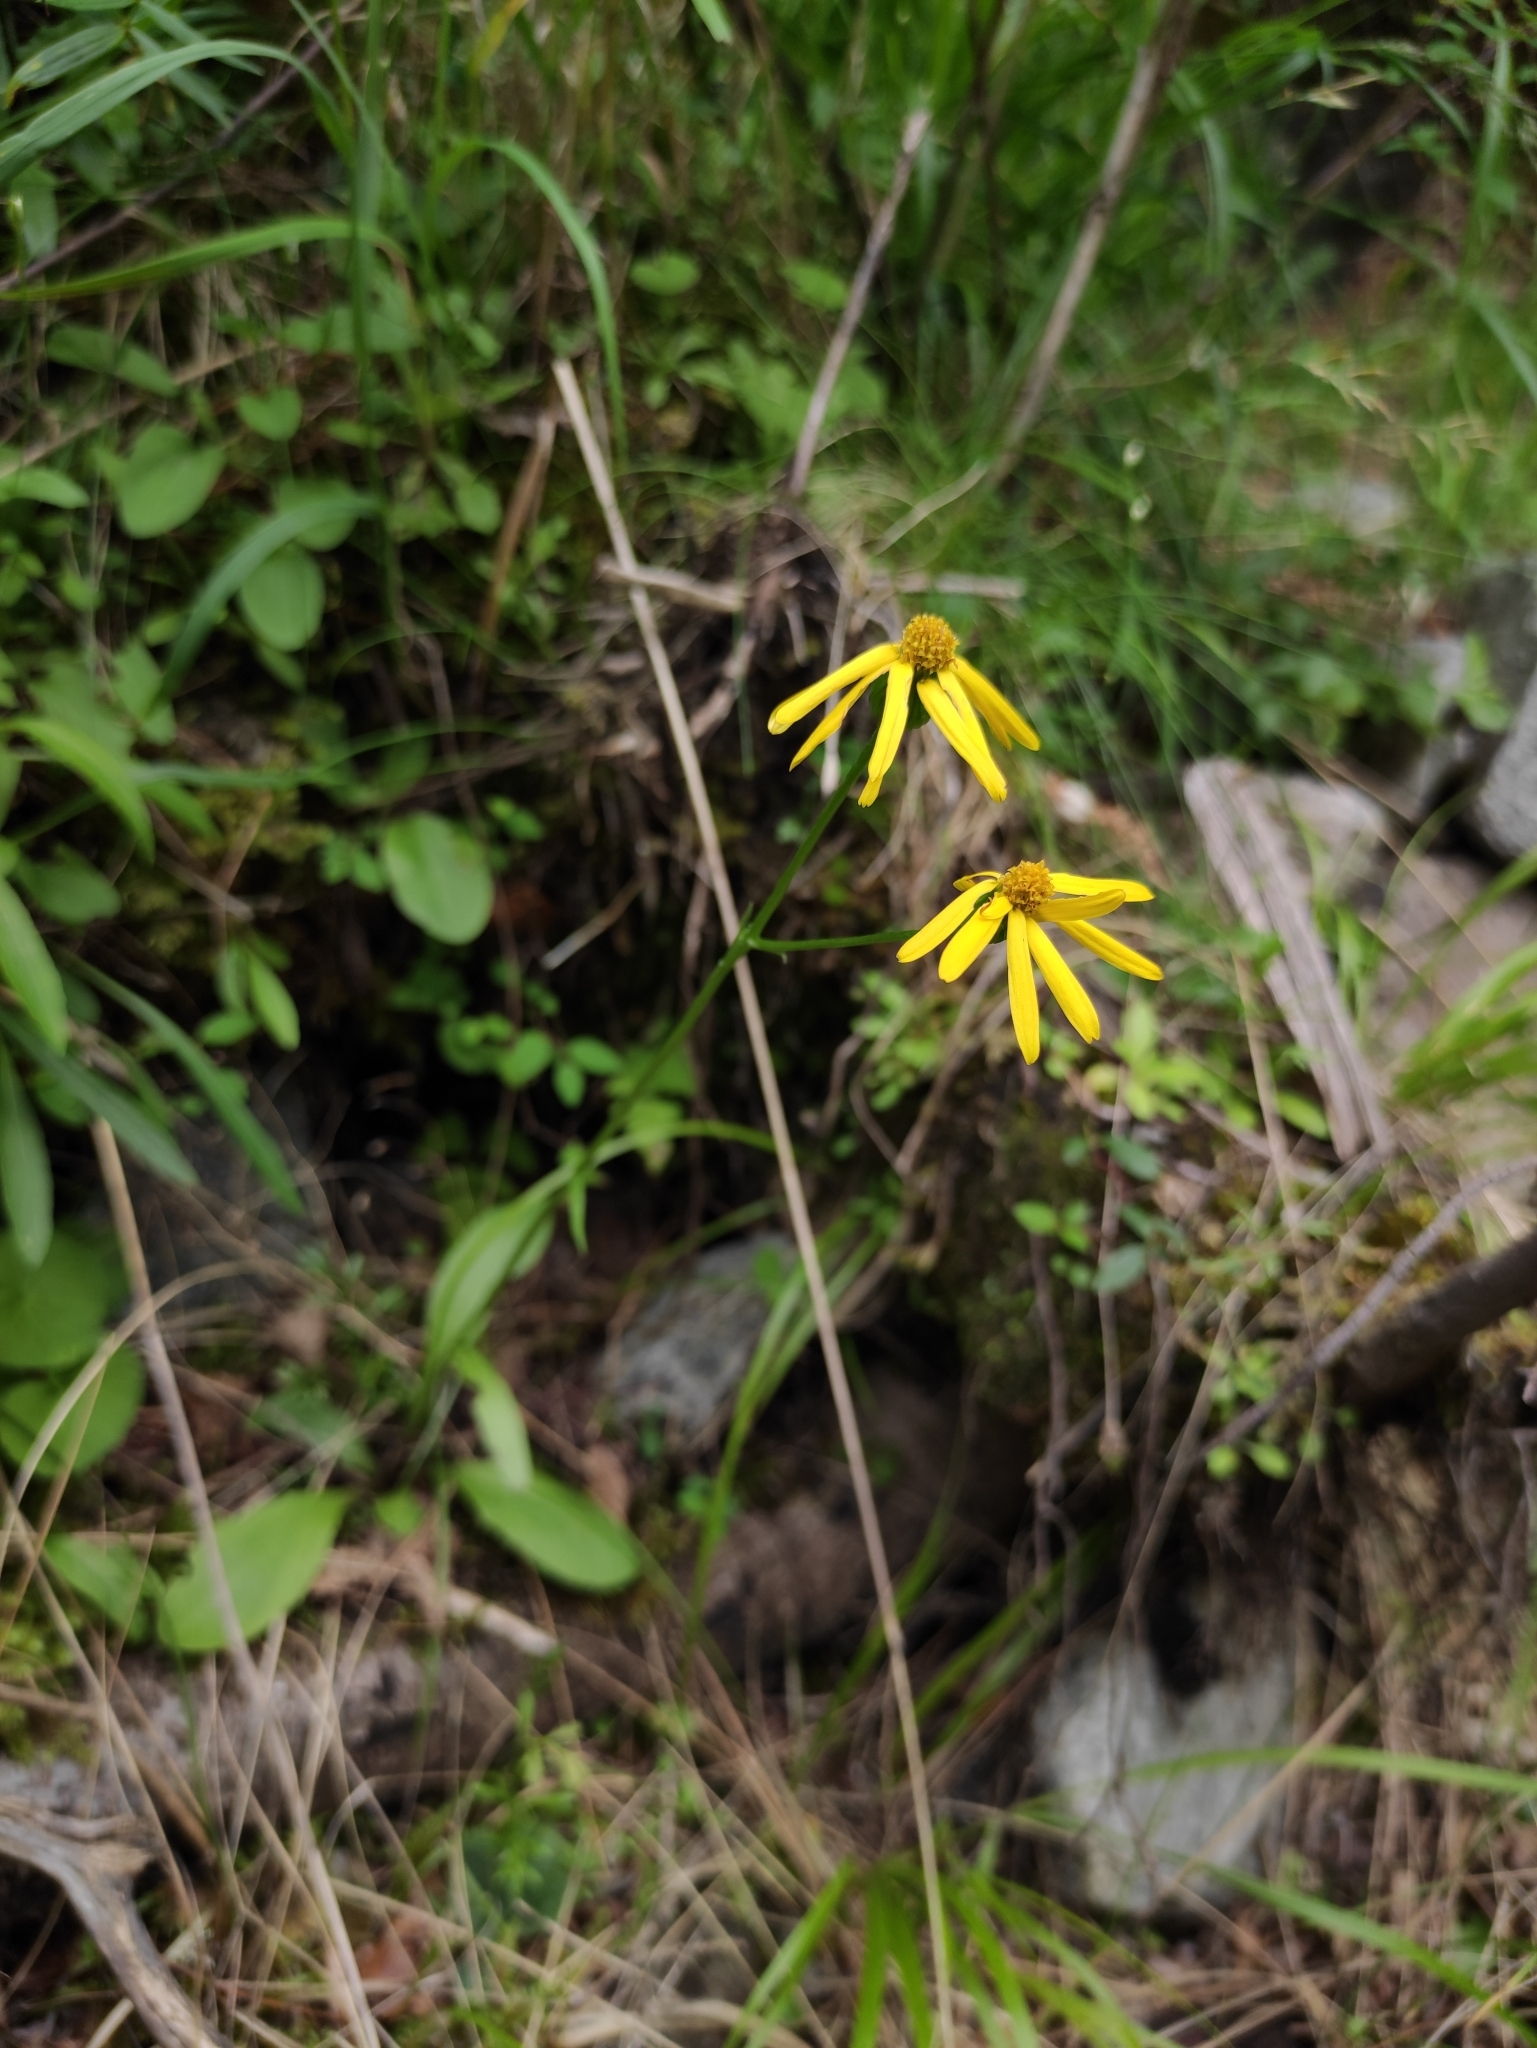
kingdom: Plantae
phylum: Tracheophyta
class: Magnoliopsida
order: Asterales
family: Asteraceae
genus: Tephroseris
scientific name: Tephroseris integrifolia
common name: Field fleawort
